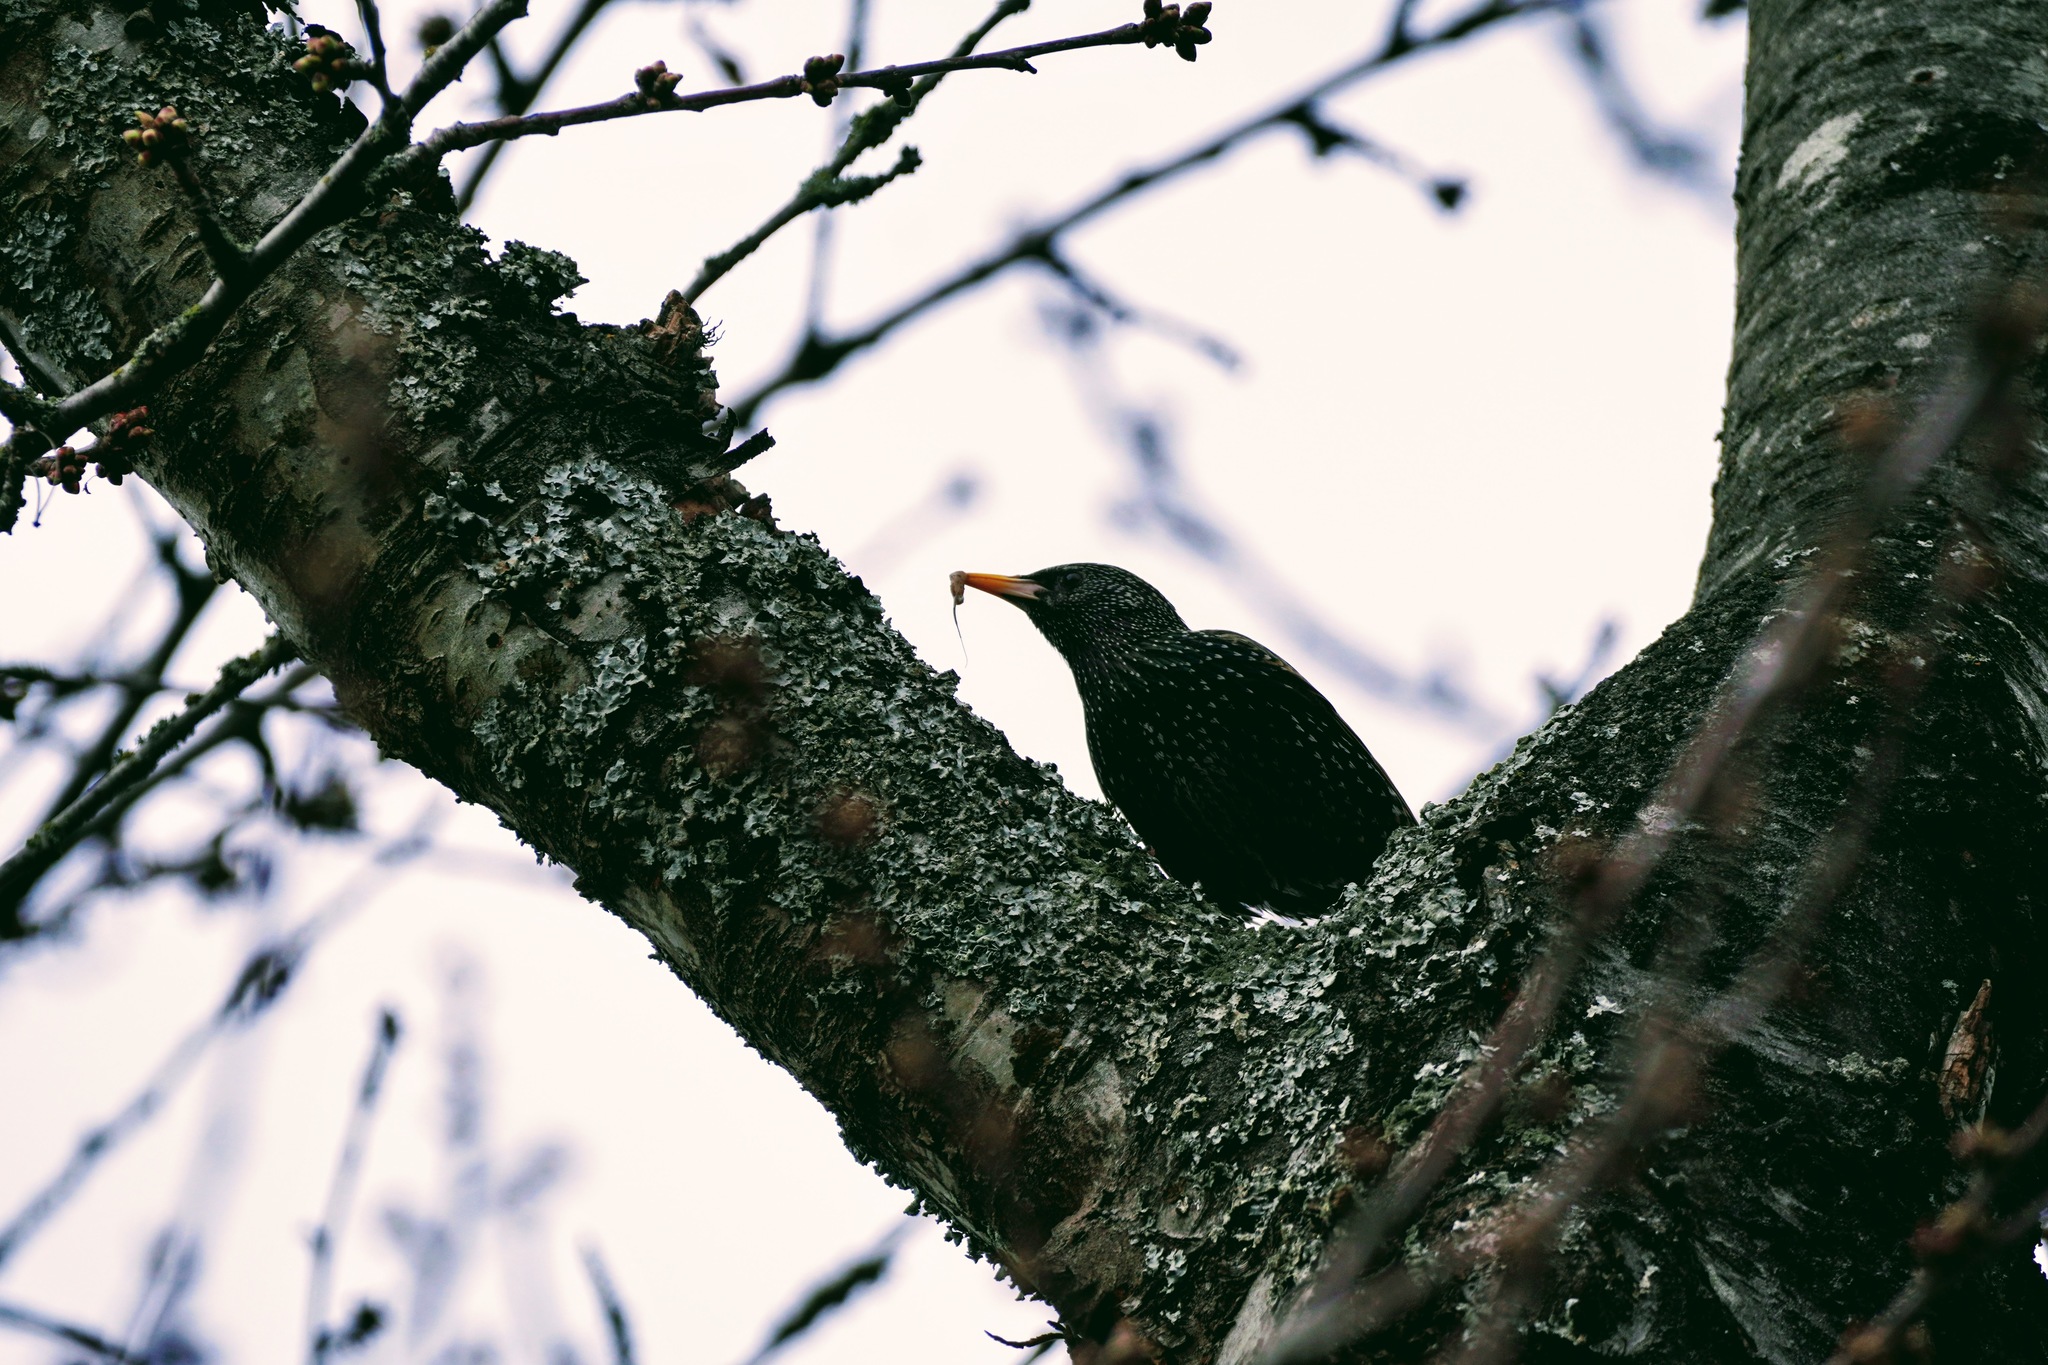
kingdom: Animalia
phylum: Chordata
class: Aves
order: Passeriformes
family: Sturnidae
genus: Sturnus
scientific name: Sturnus vulgaris
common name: Common starling
